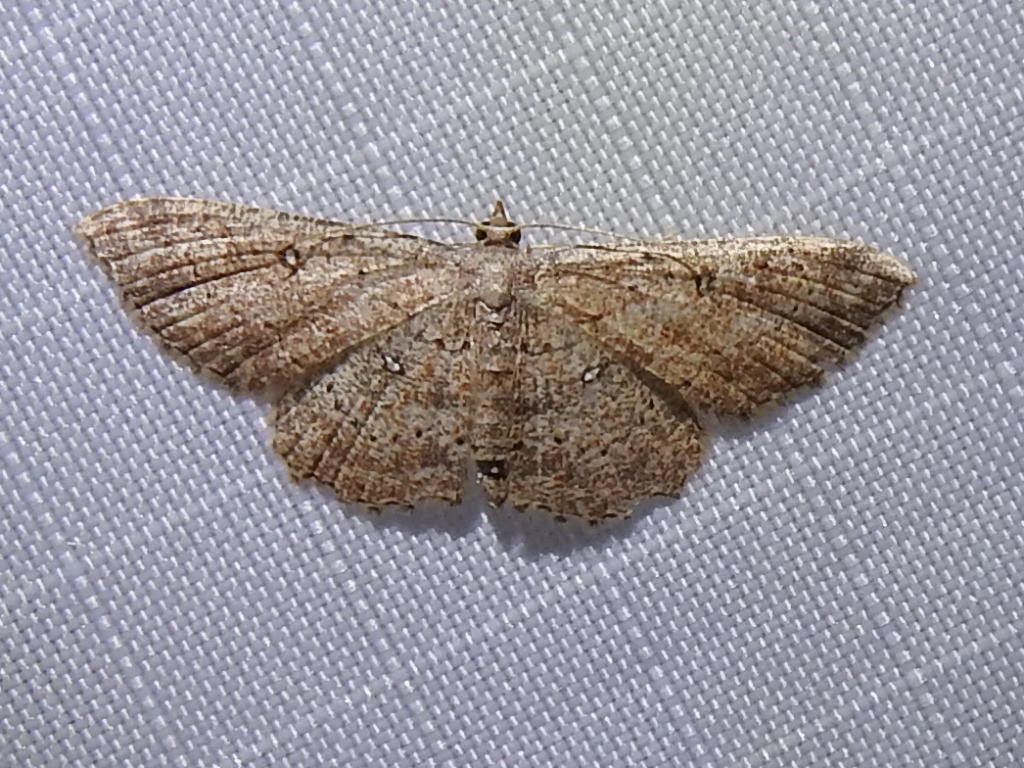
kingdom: Animalia
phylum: Arthropoda
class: Insecta
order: Lepidoptera
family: Geometridae
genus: Cyclophora
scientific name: Cyclophora nanaria
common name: Cankerworm
